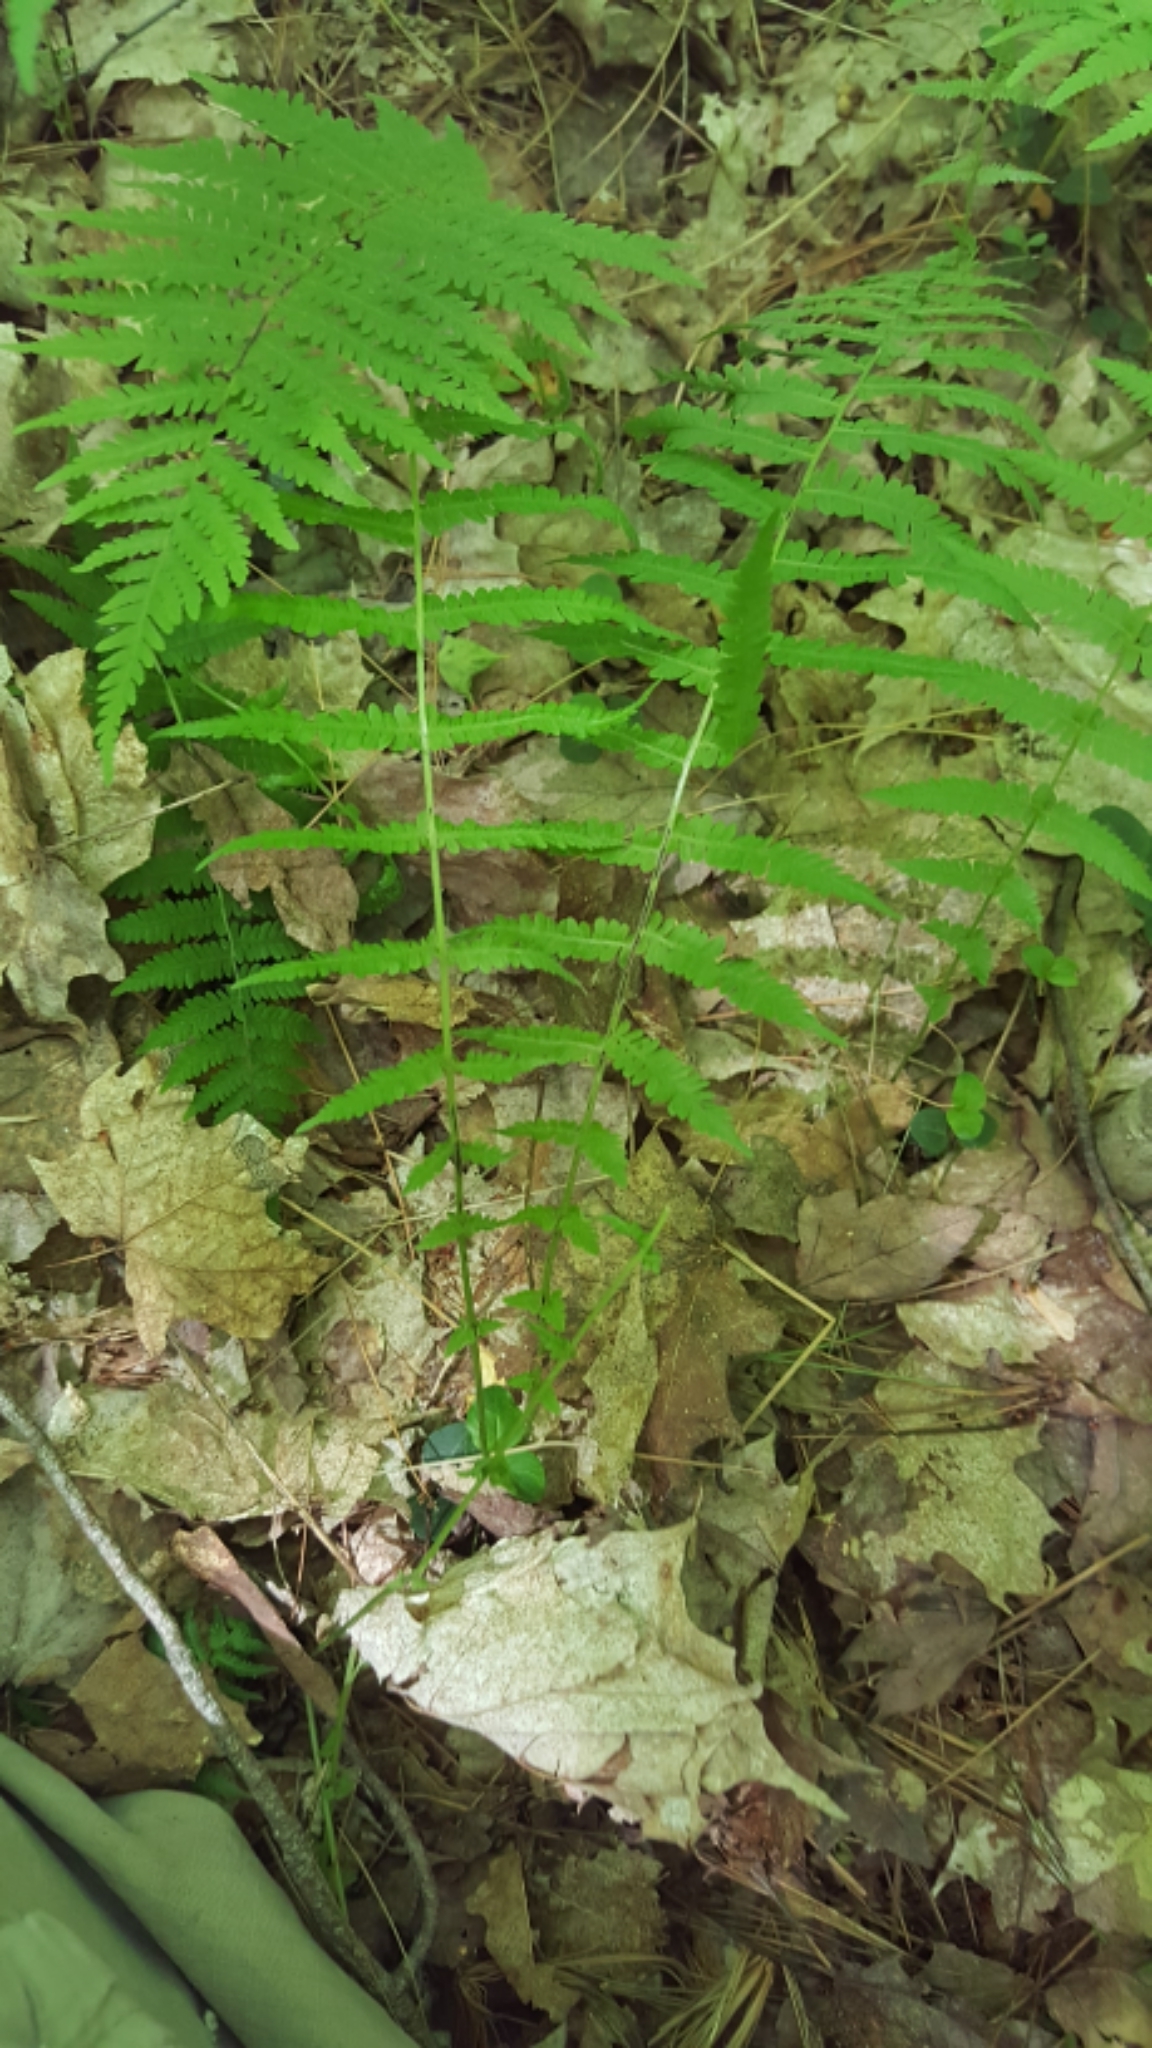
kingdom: Plantae
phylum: Tracheophyta
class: Polypodiopsida
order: Polypodiales
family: Thelypteridaceae
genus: Amauropelta
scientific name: Amauropelta noveboracensis
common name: New york fern
